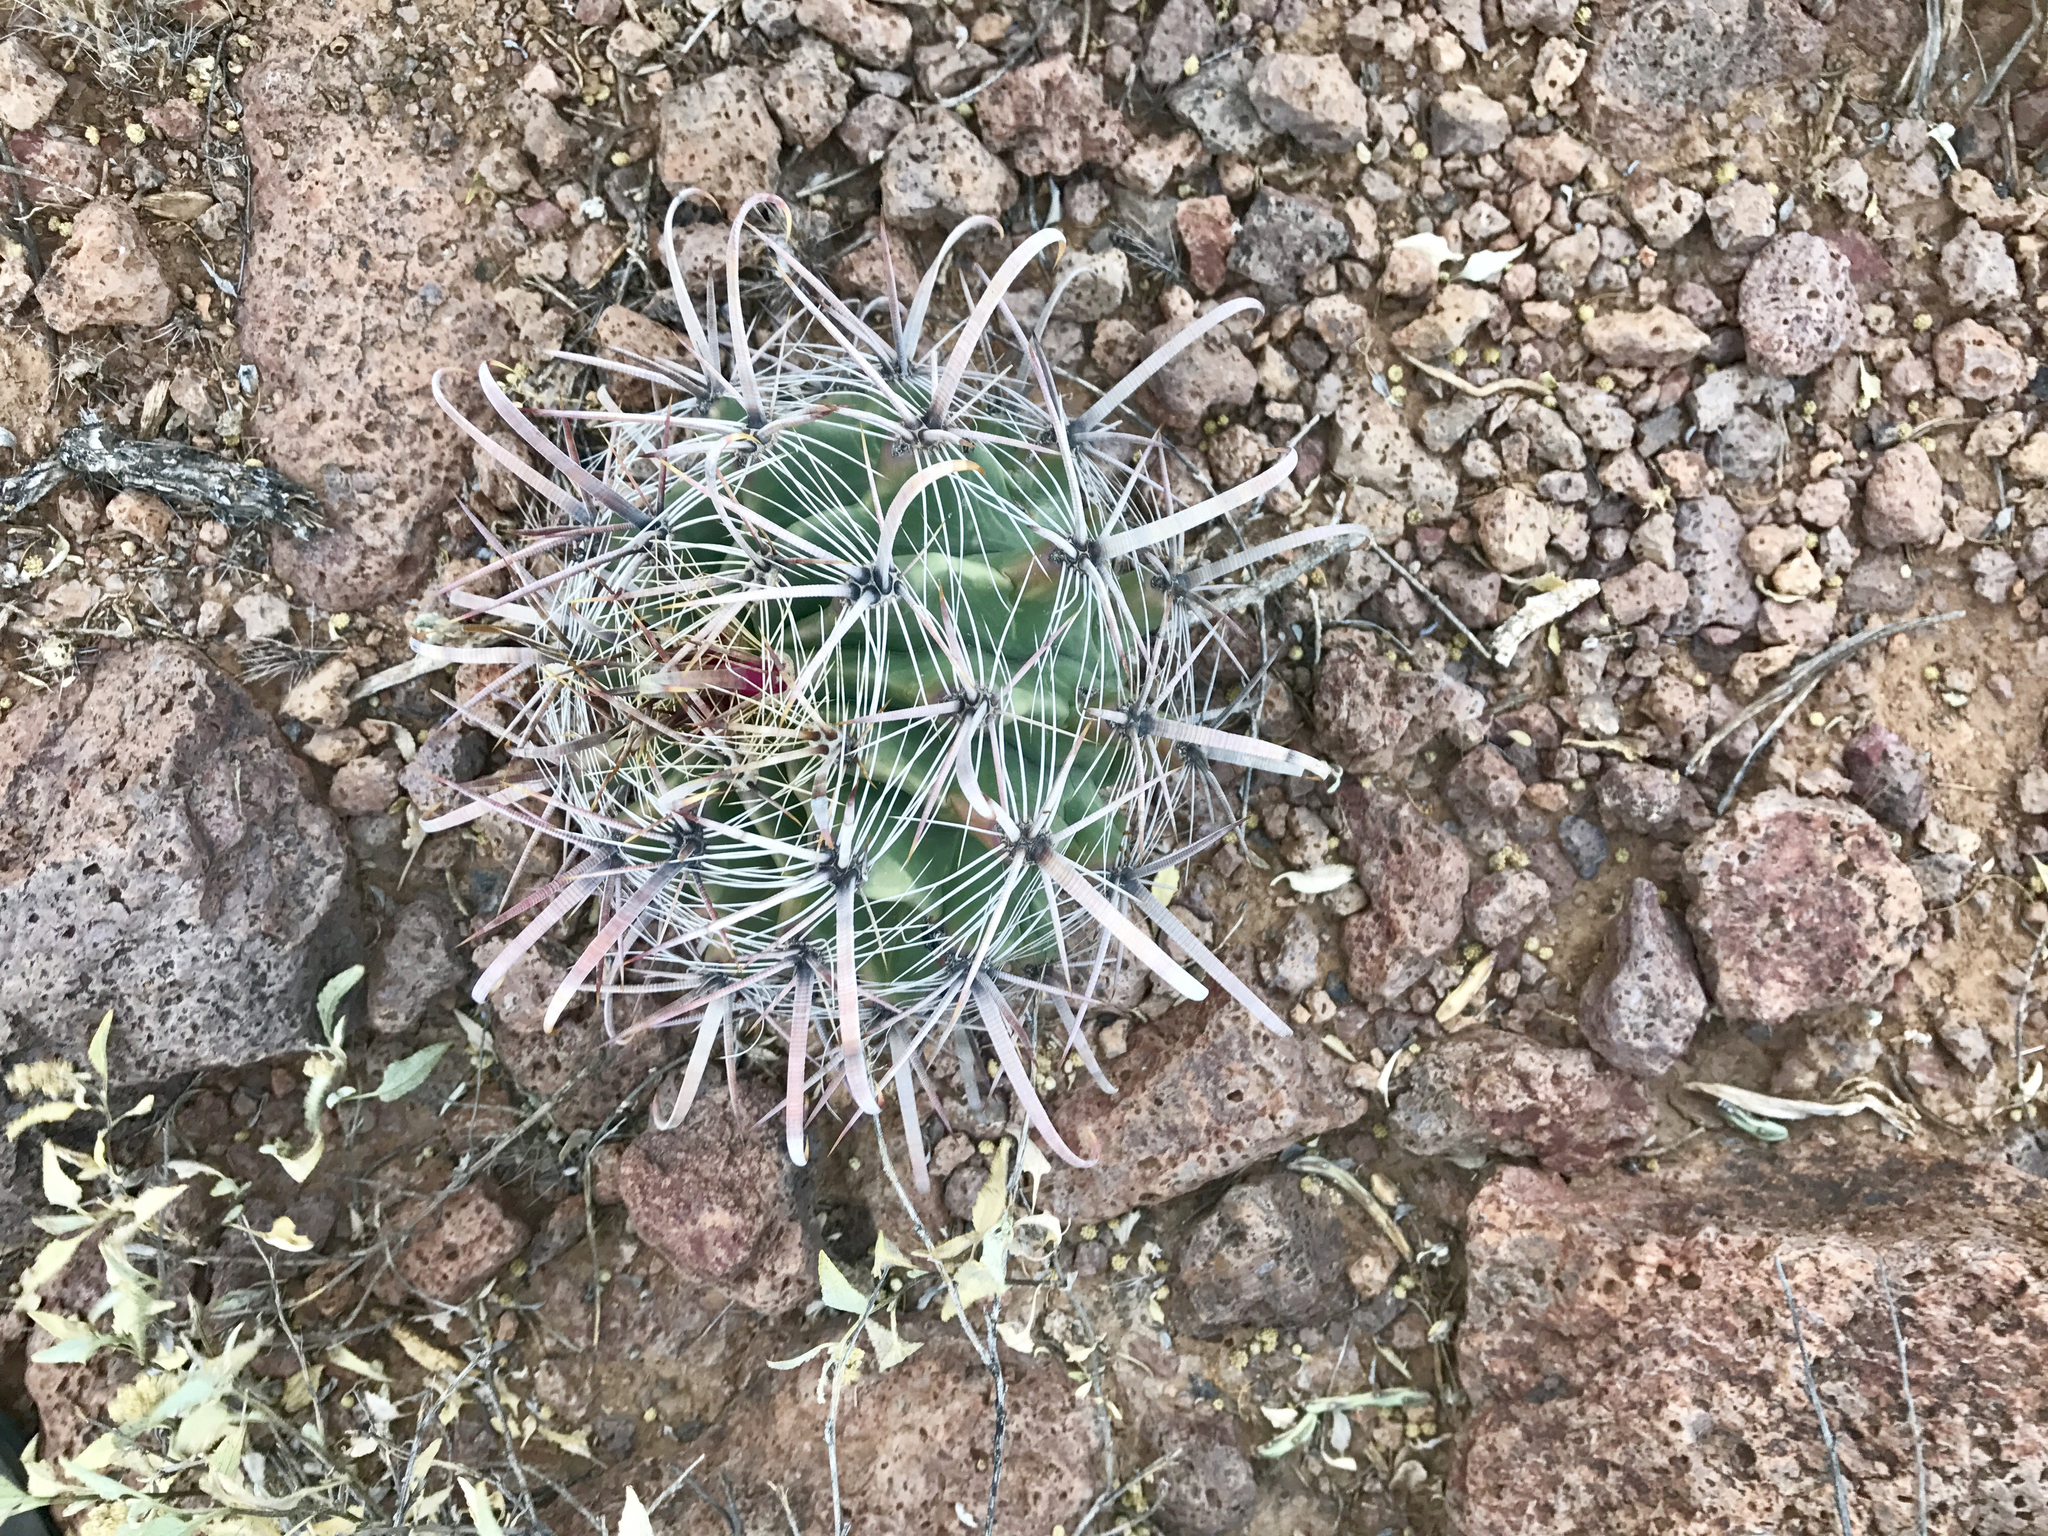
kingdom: Plantae
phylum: Tracheophyta
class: Magnoliopsida
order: Caryophyllales
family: Cactaceae
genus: Ferocactus
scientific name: Ferocactus wislizeni
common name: Candy barrel cactus
